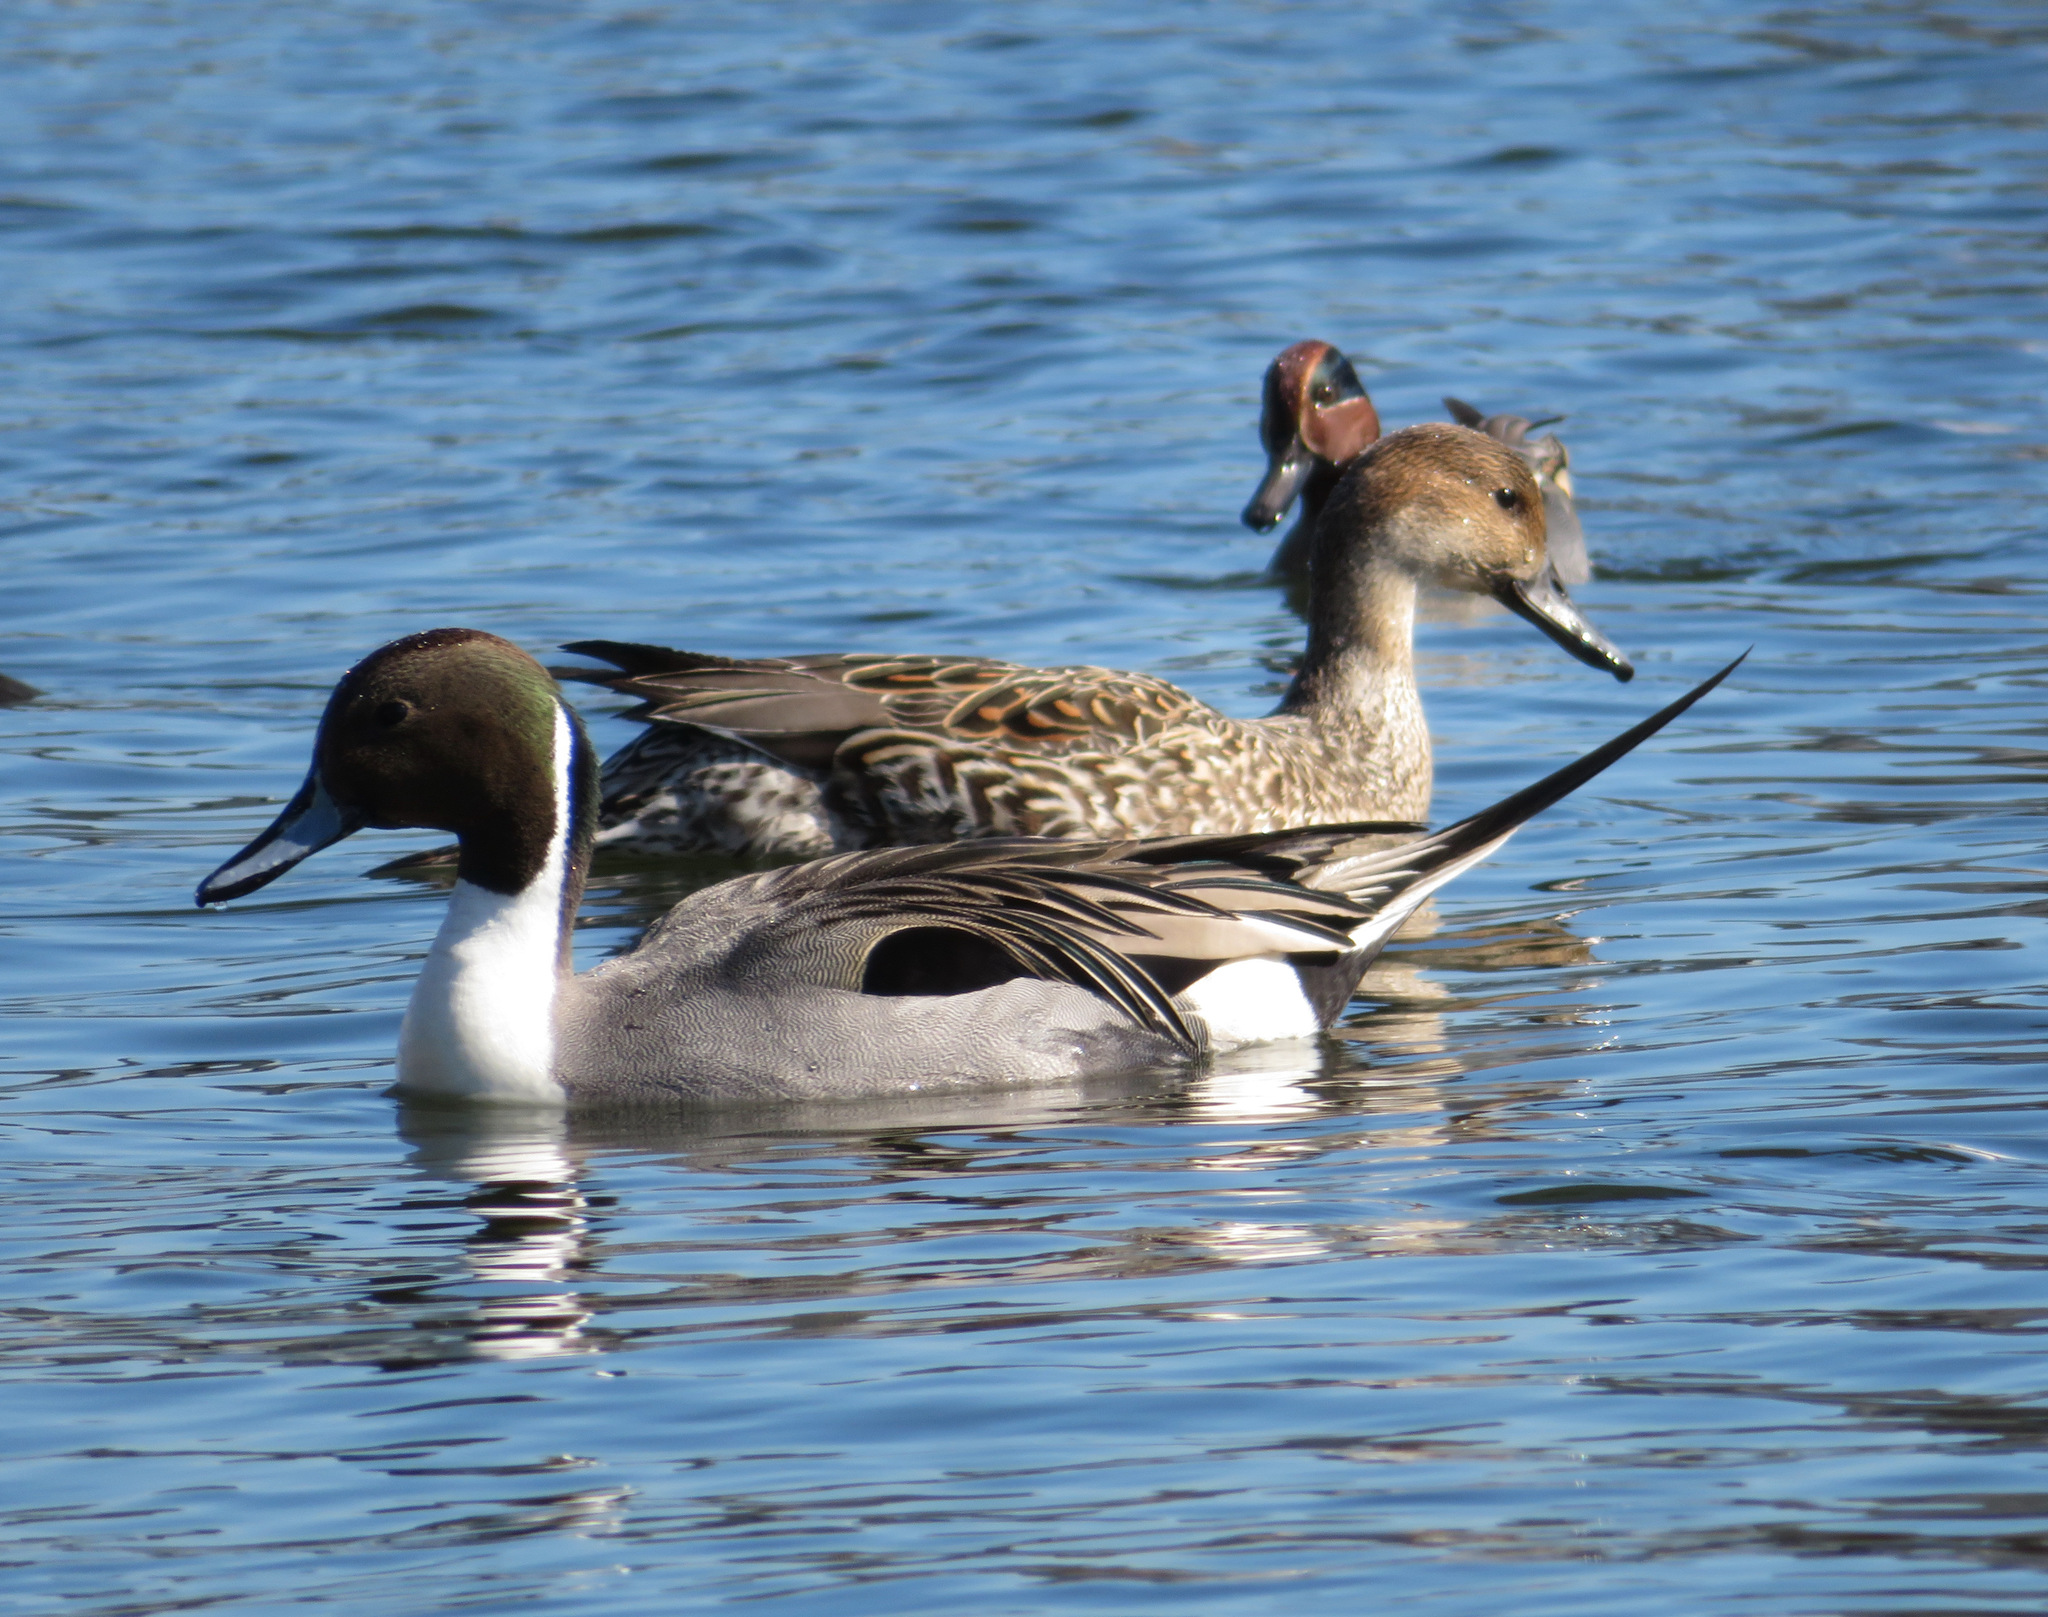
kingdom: Animalia
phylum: Chordata
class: Aves
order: Anseriformes
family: Anatidae
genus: Anas
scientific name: Anas acuta
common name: Northern pintail
